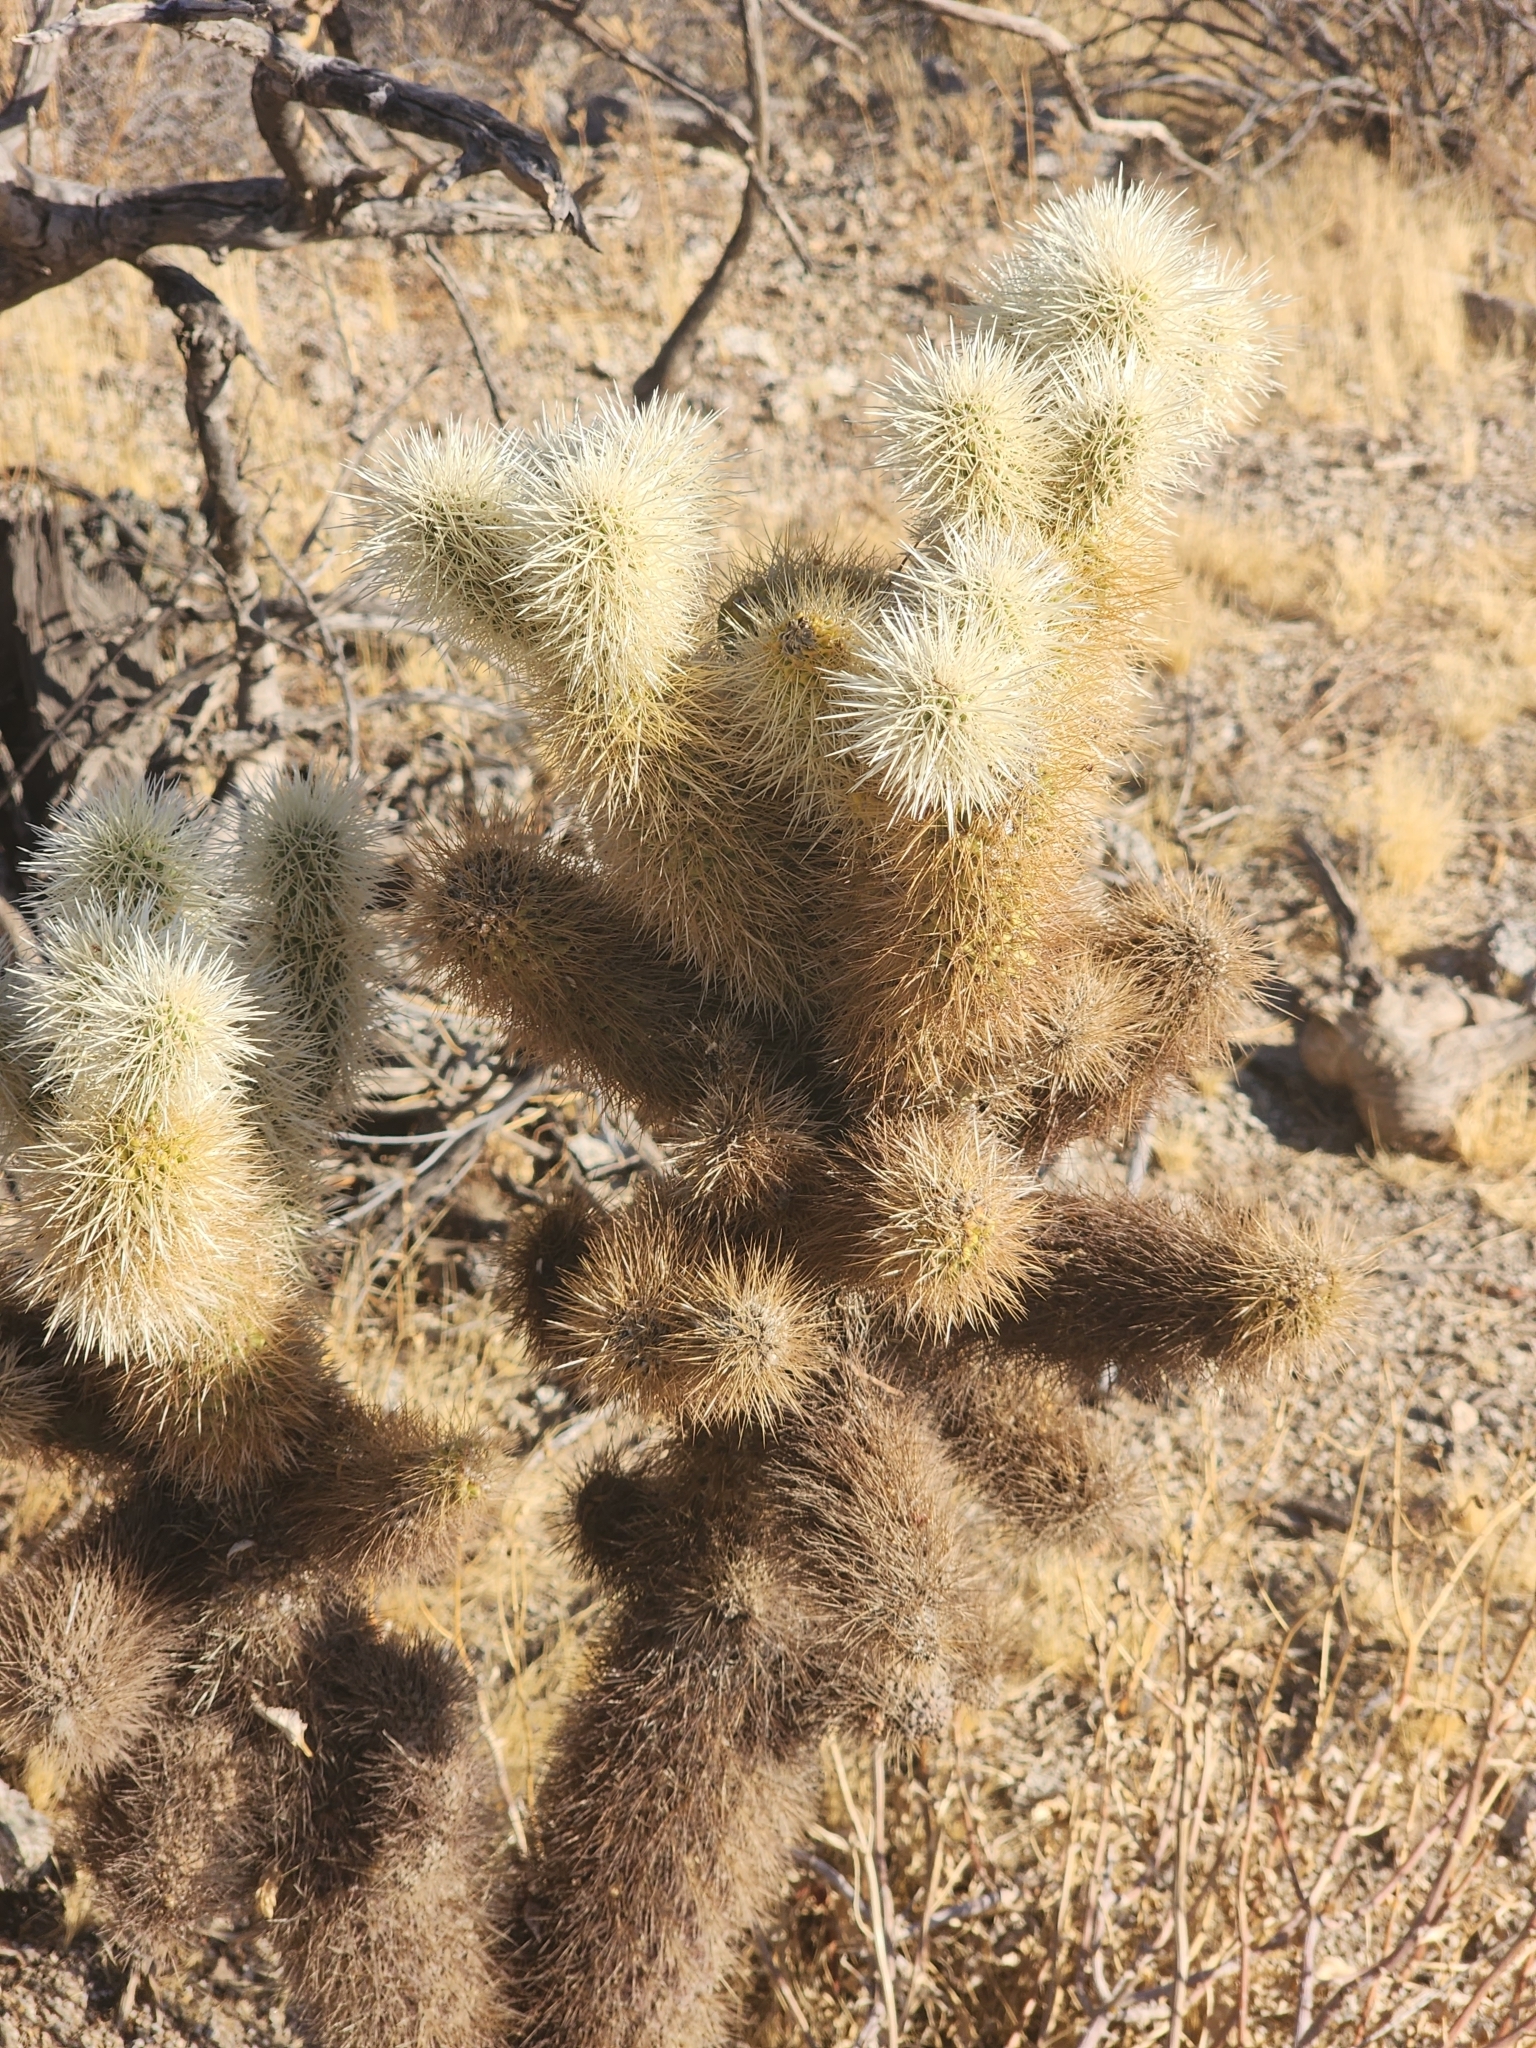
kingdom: Plantae
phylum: Tracheophyta
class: Magnoliopsida
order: Caryophyllales
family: Cactaceae
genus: Cylindropuntia
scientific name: Cylindropuntia fosbergii
